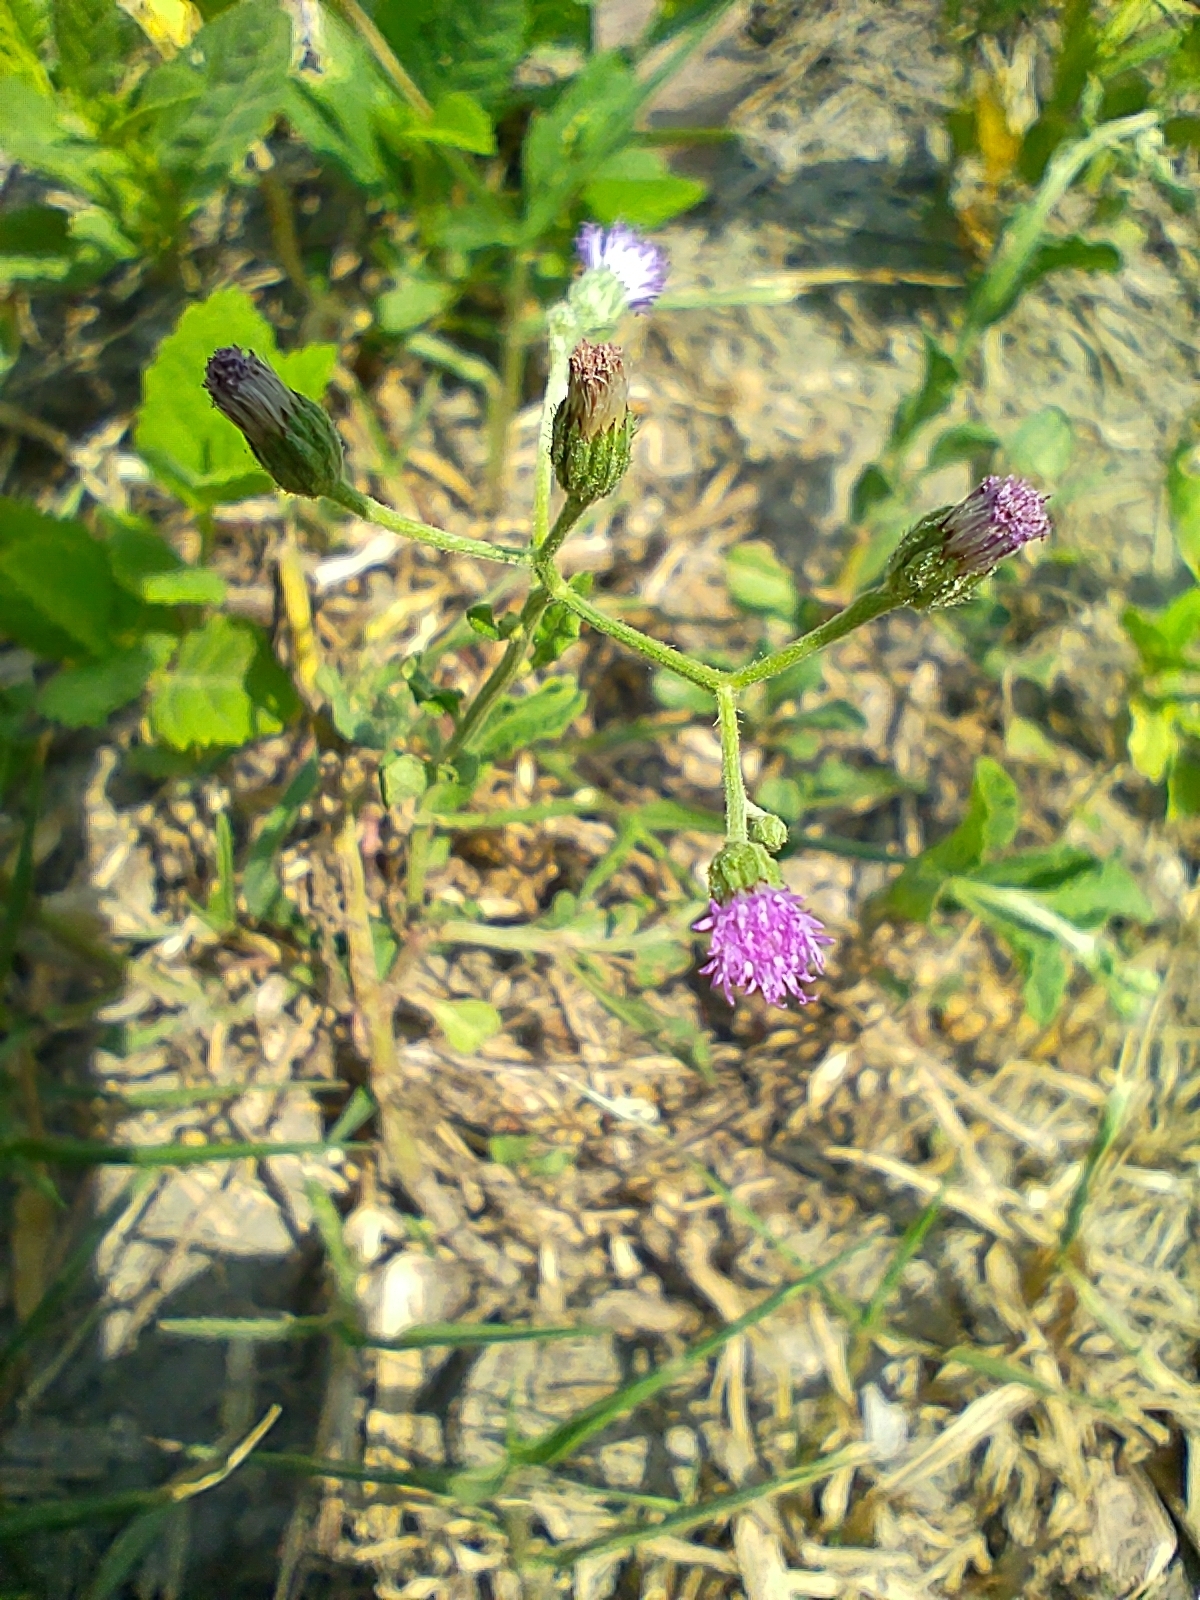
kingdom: Plantae
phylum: Tracheophyta
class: Magnoliopsida
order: Asterales
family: Asteraceae
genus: Cyanthillium
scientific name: Cyanthillium cinereum
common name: Little ironweed
